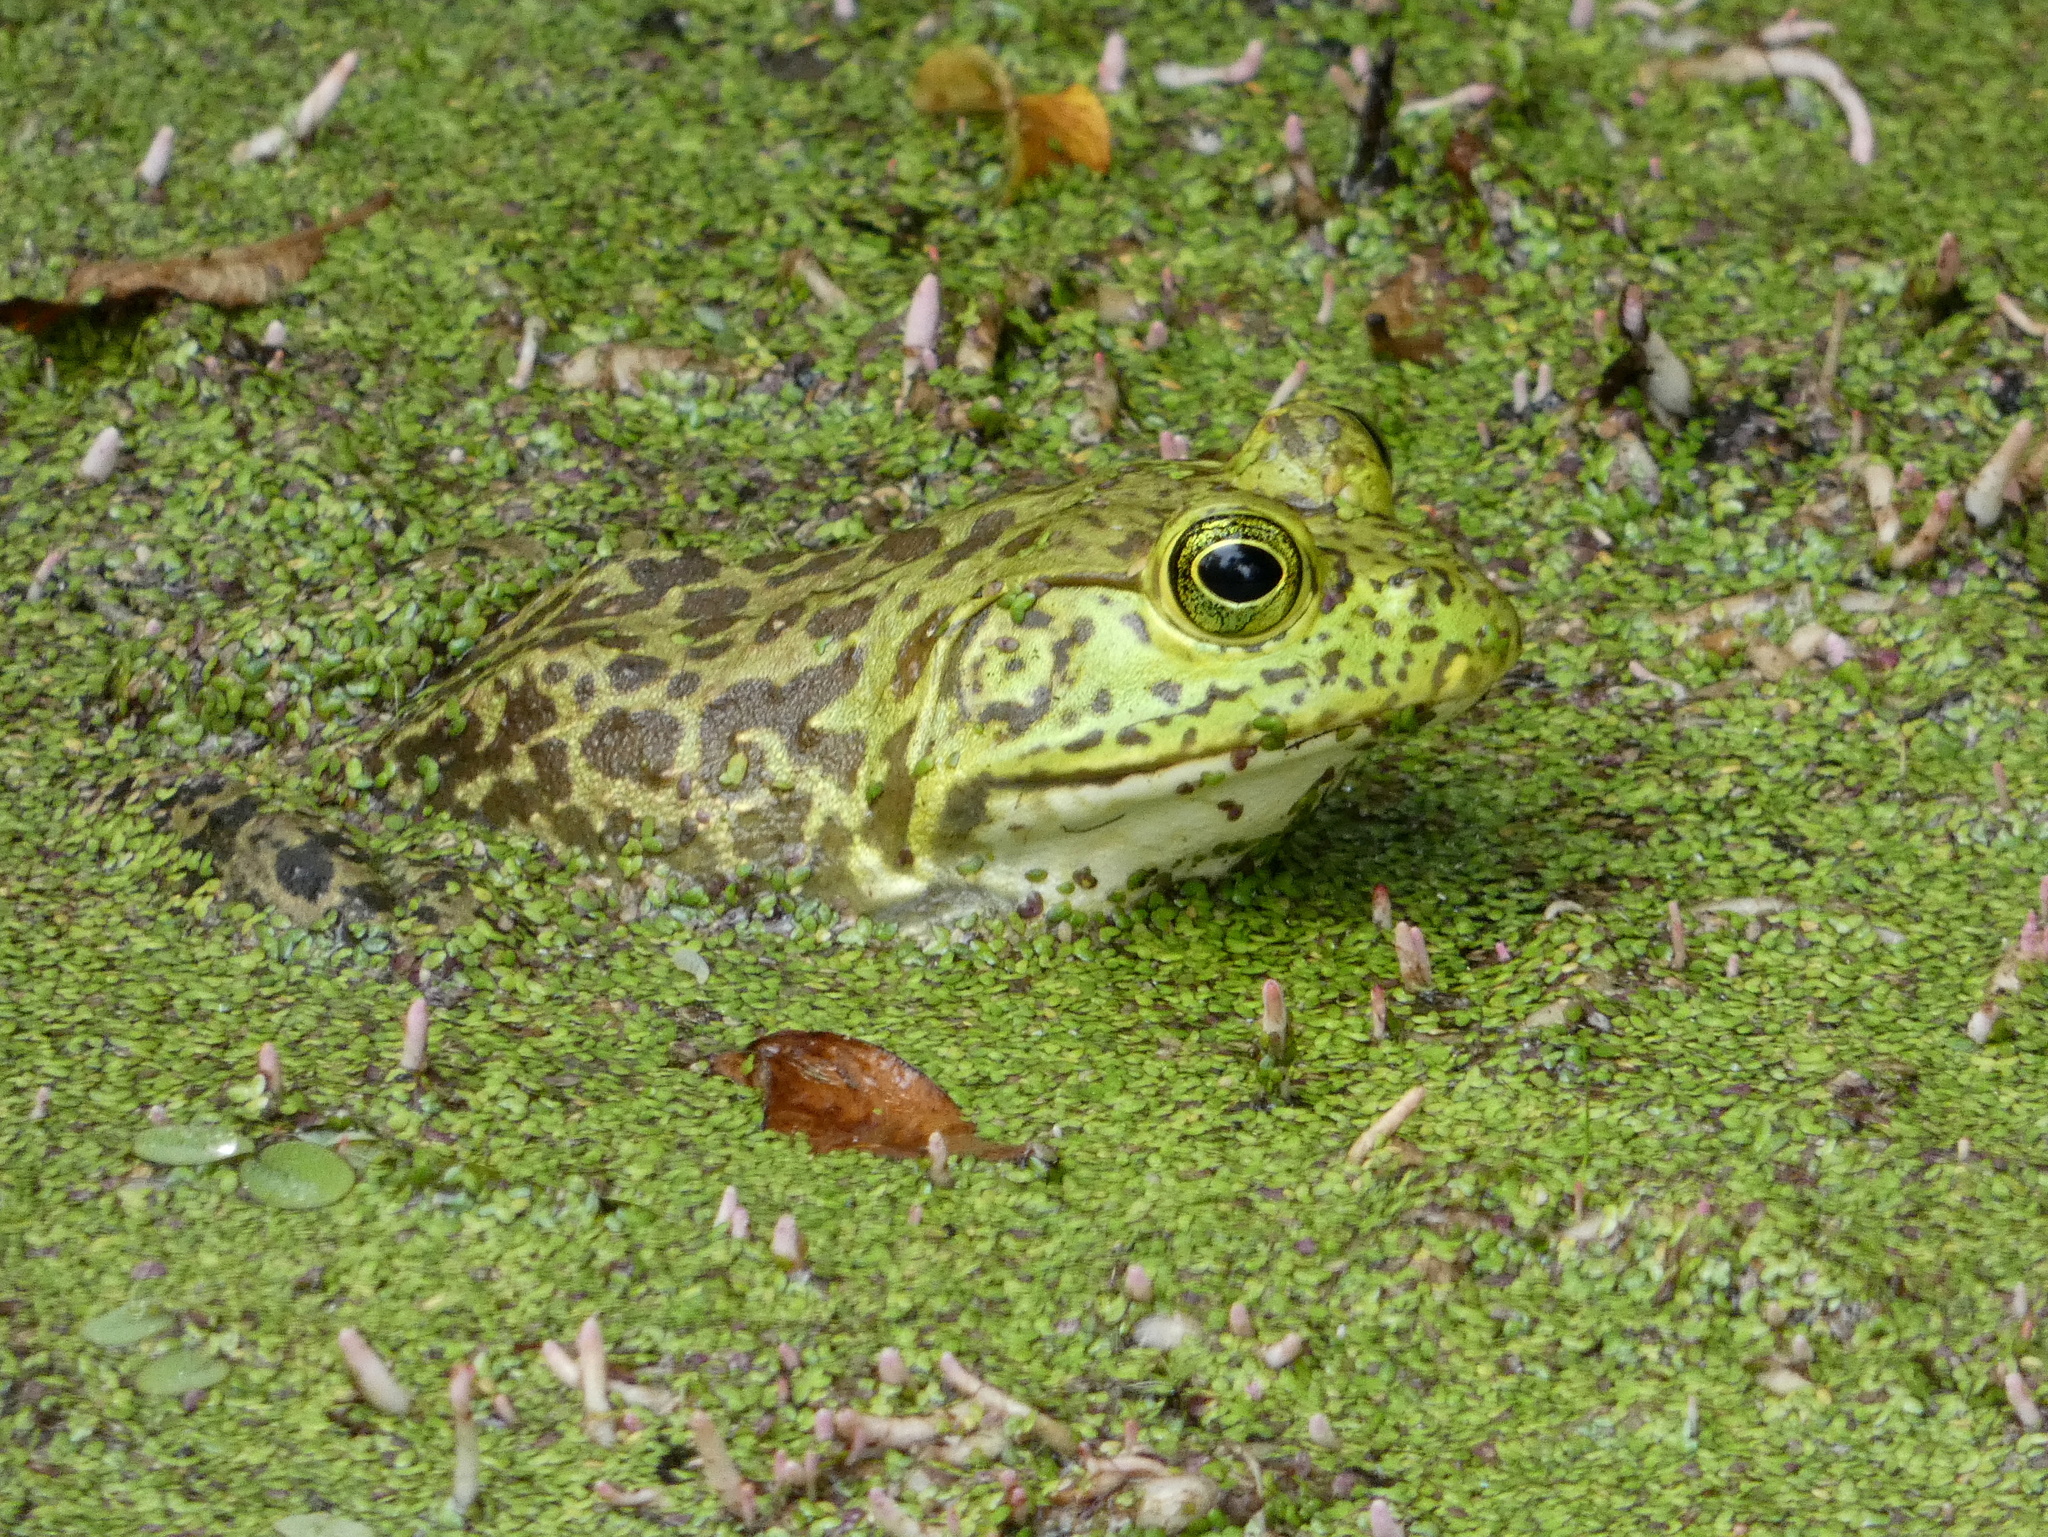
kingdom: Animalia
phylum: Chordata
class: Amphibia
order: Anura
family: Ranidae
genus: Lithobates
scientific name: Lithobates catesbeianus
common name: American bullfrog
